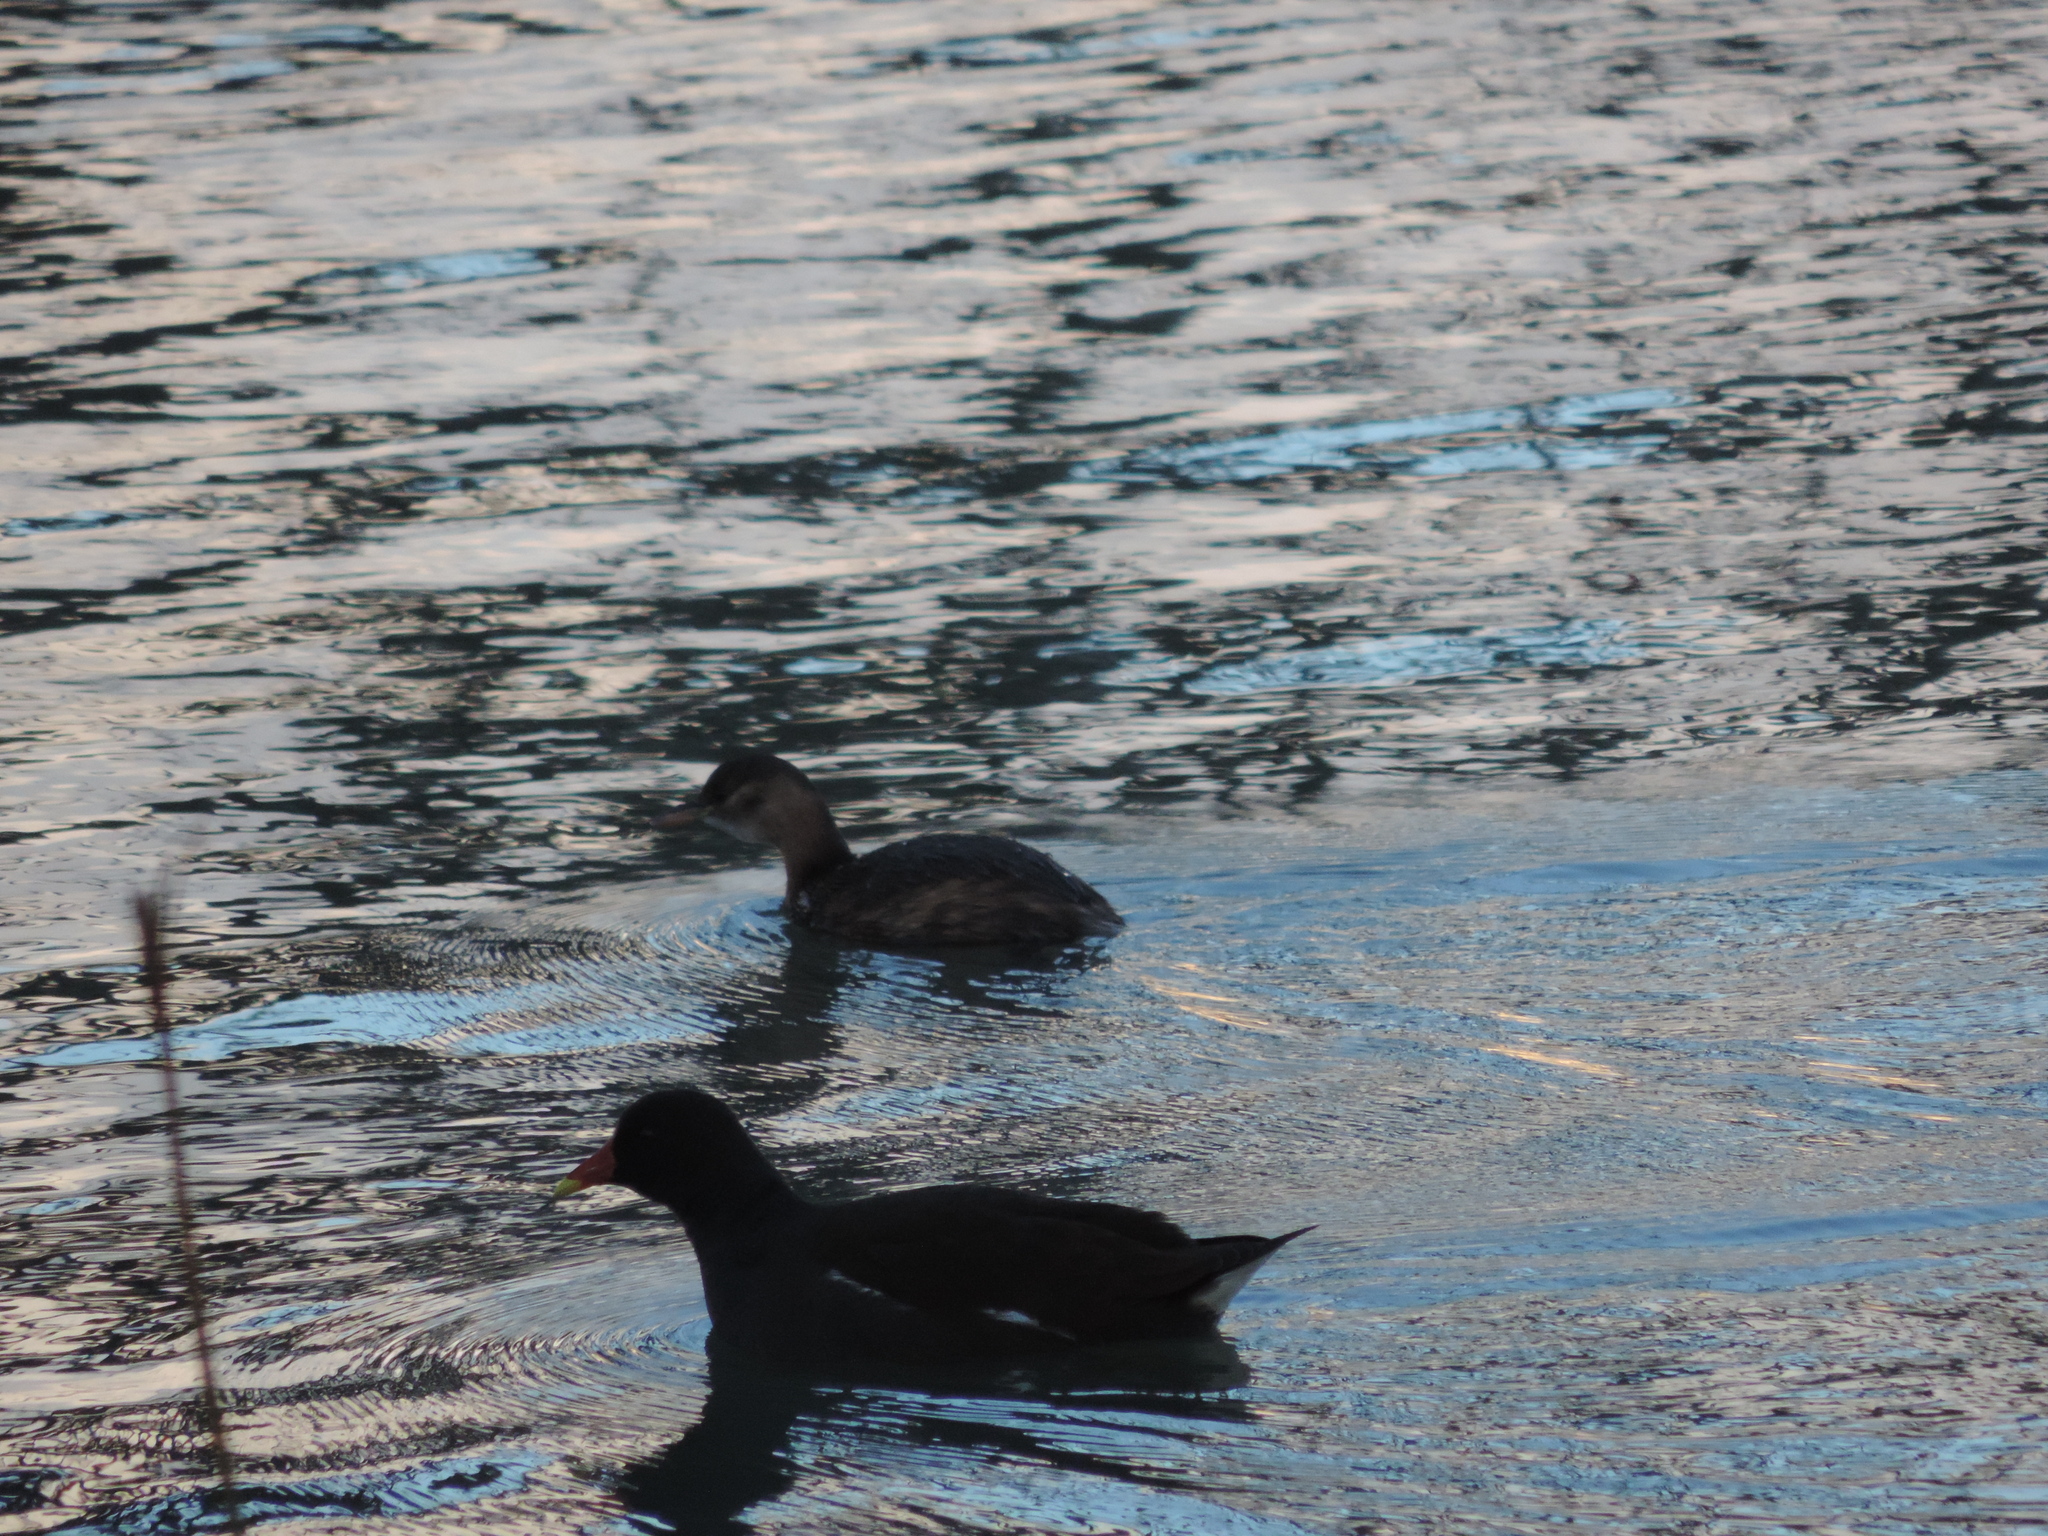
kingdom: Animalia
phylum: Chordata
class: Aves
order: Podicipediformes
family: Podicipedidae
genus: Tachybaptus
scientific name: Tachybaptus ruficollis
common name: Little grebe
